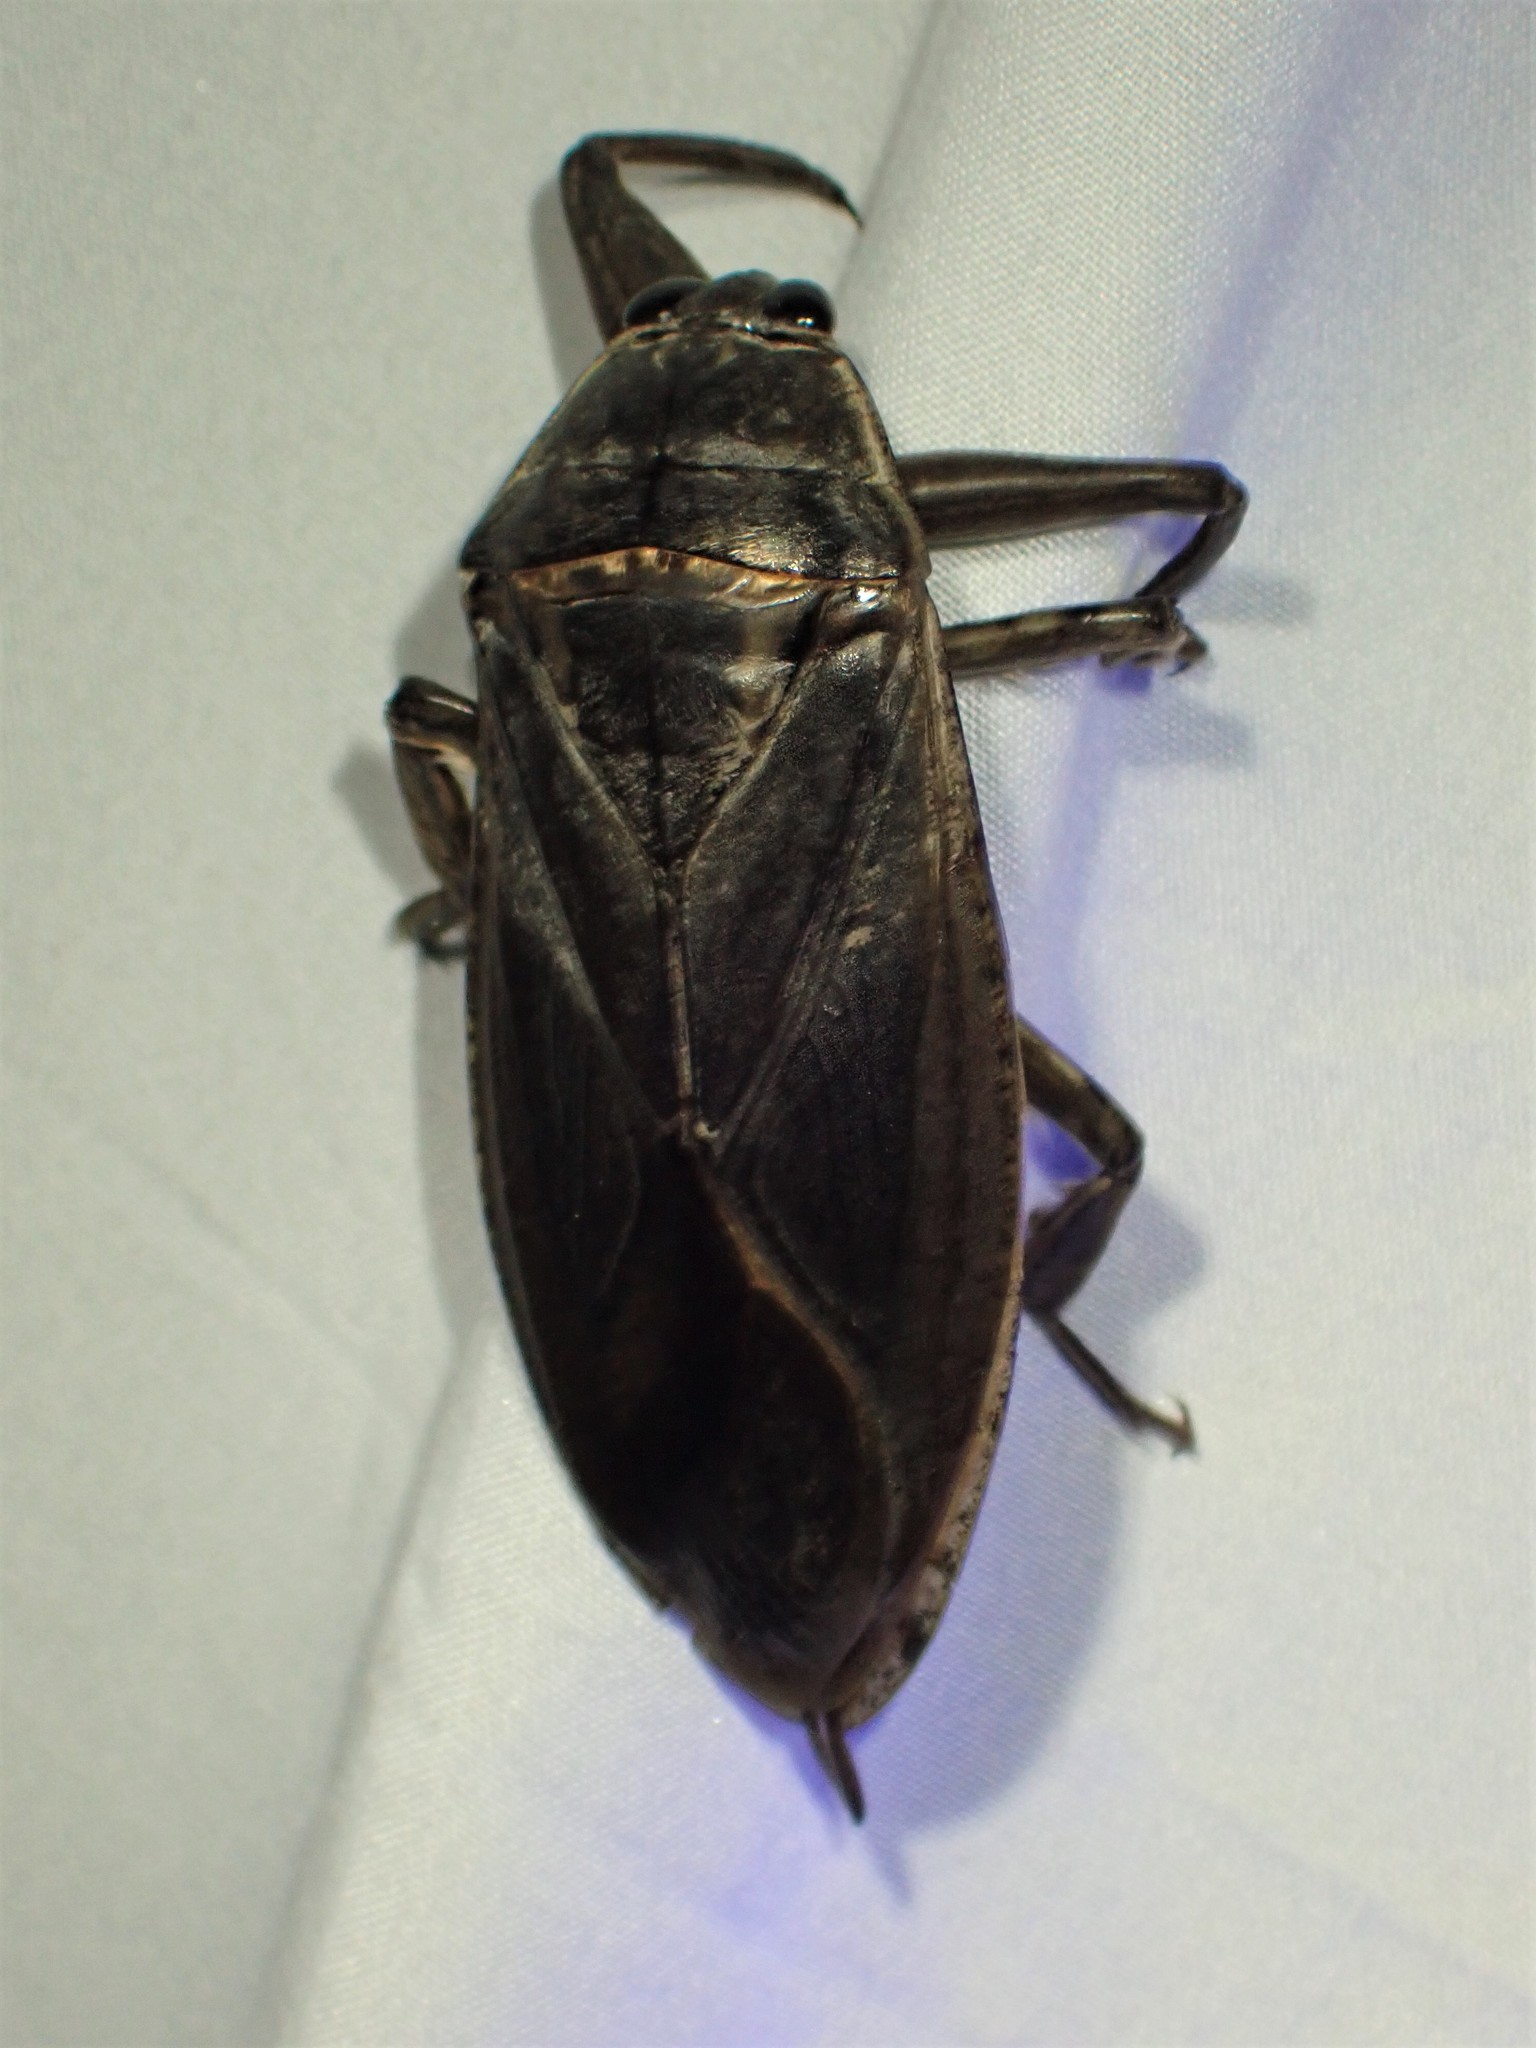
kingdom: Animalia
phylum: Arthropoda
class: Insecta
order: Hemiptera
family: Belostomatidae
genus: Lethocerus
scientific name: Lethocerus americanus
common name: Giant water bug
